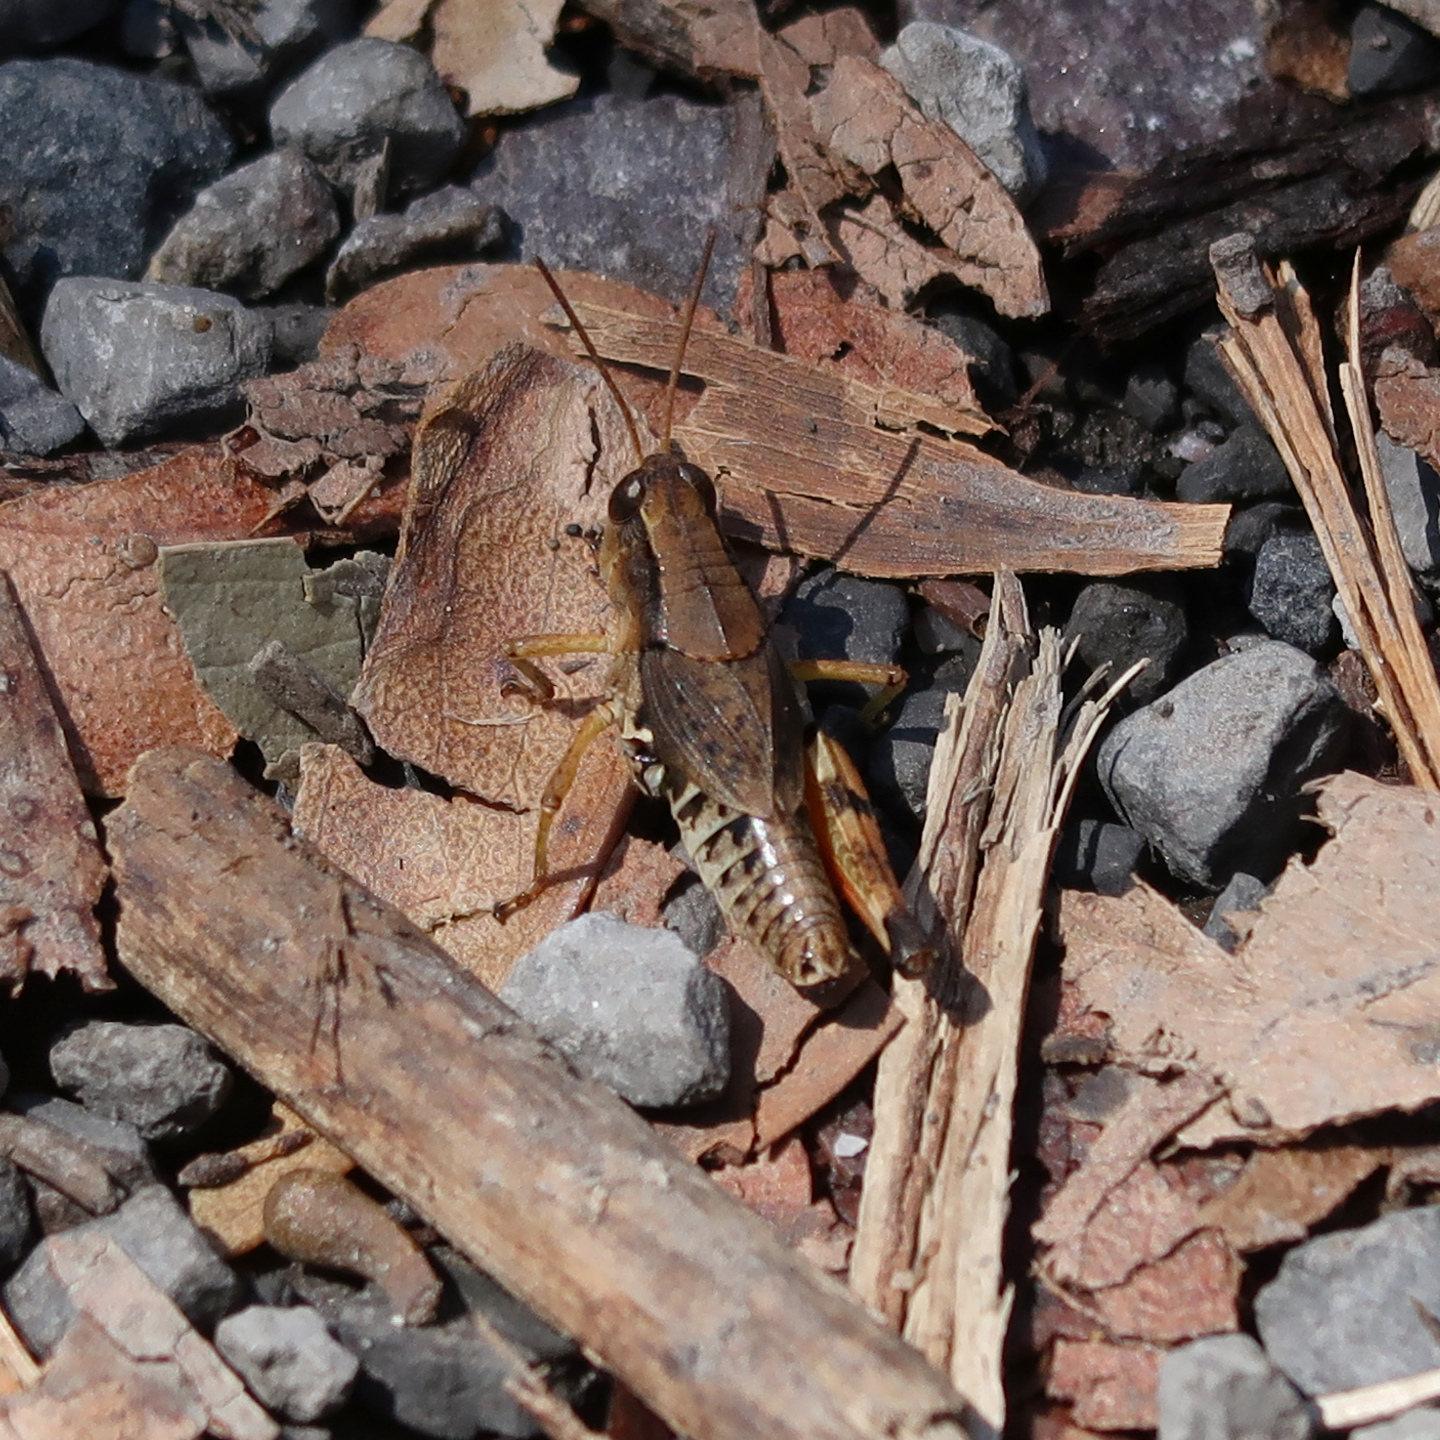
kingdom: Animalia
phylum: Arthropoda
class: Insecta
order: Orthoptera
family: Acrididae
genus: Phaulacridium
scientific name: Phaulacridium vittatum
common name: Wingless grasshopper
